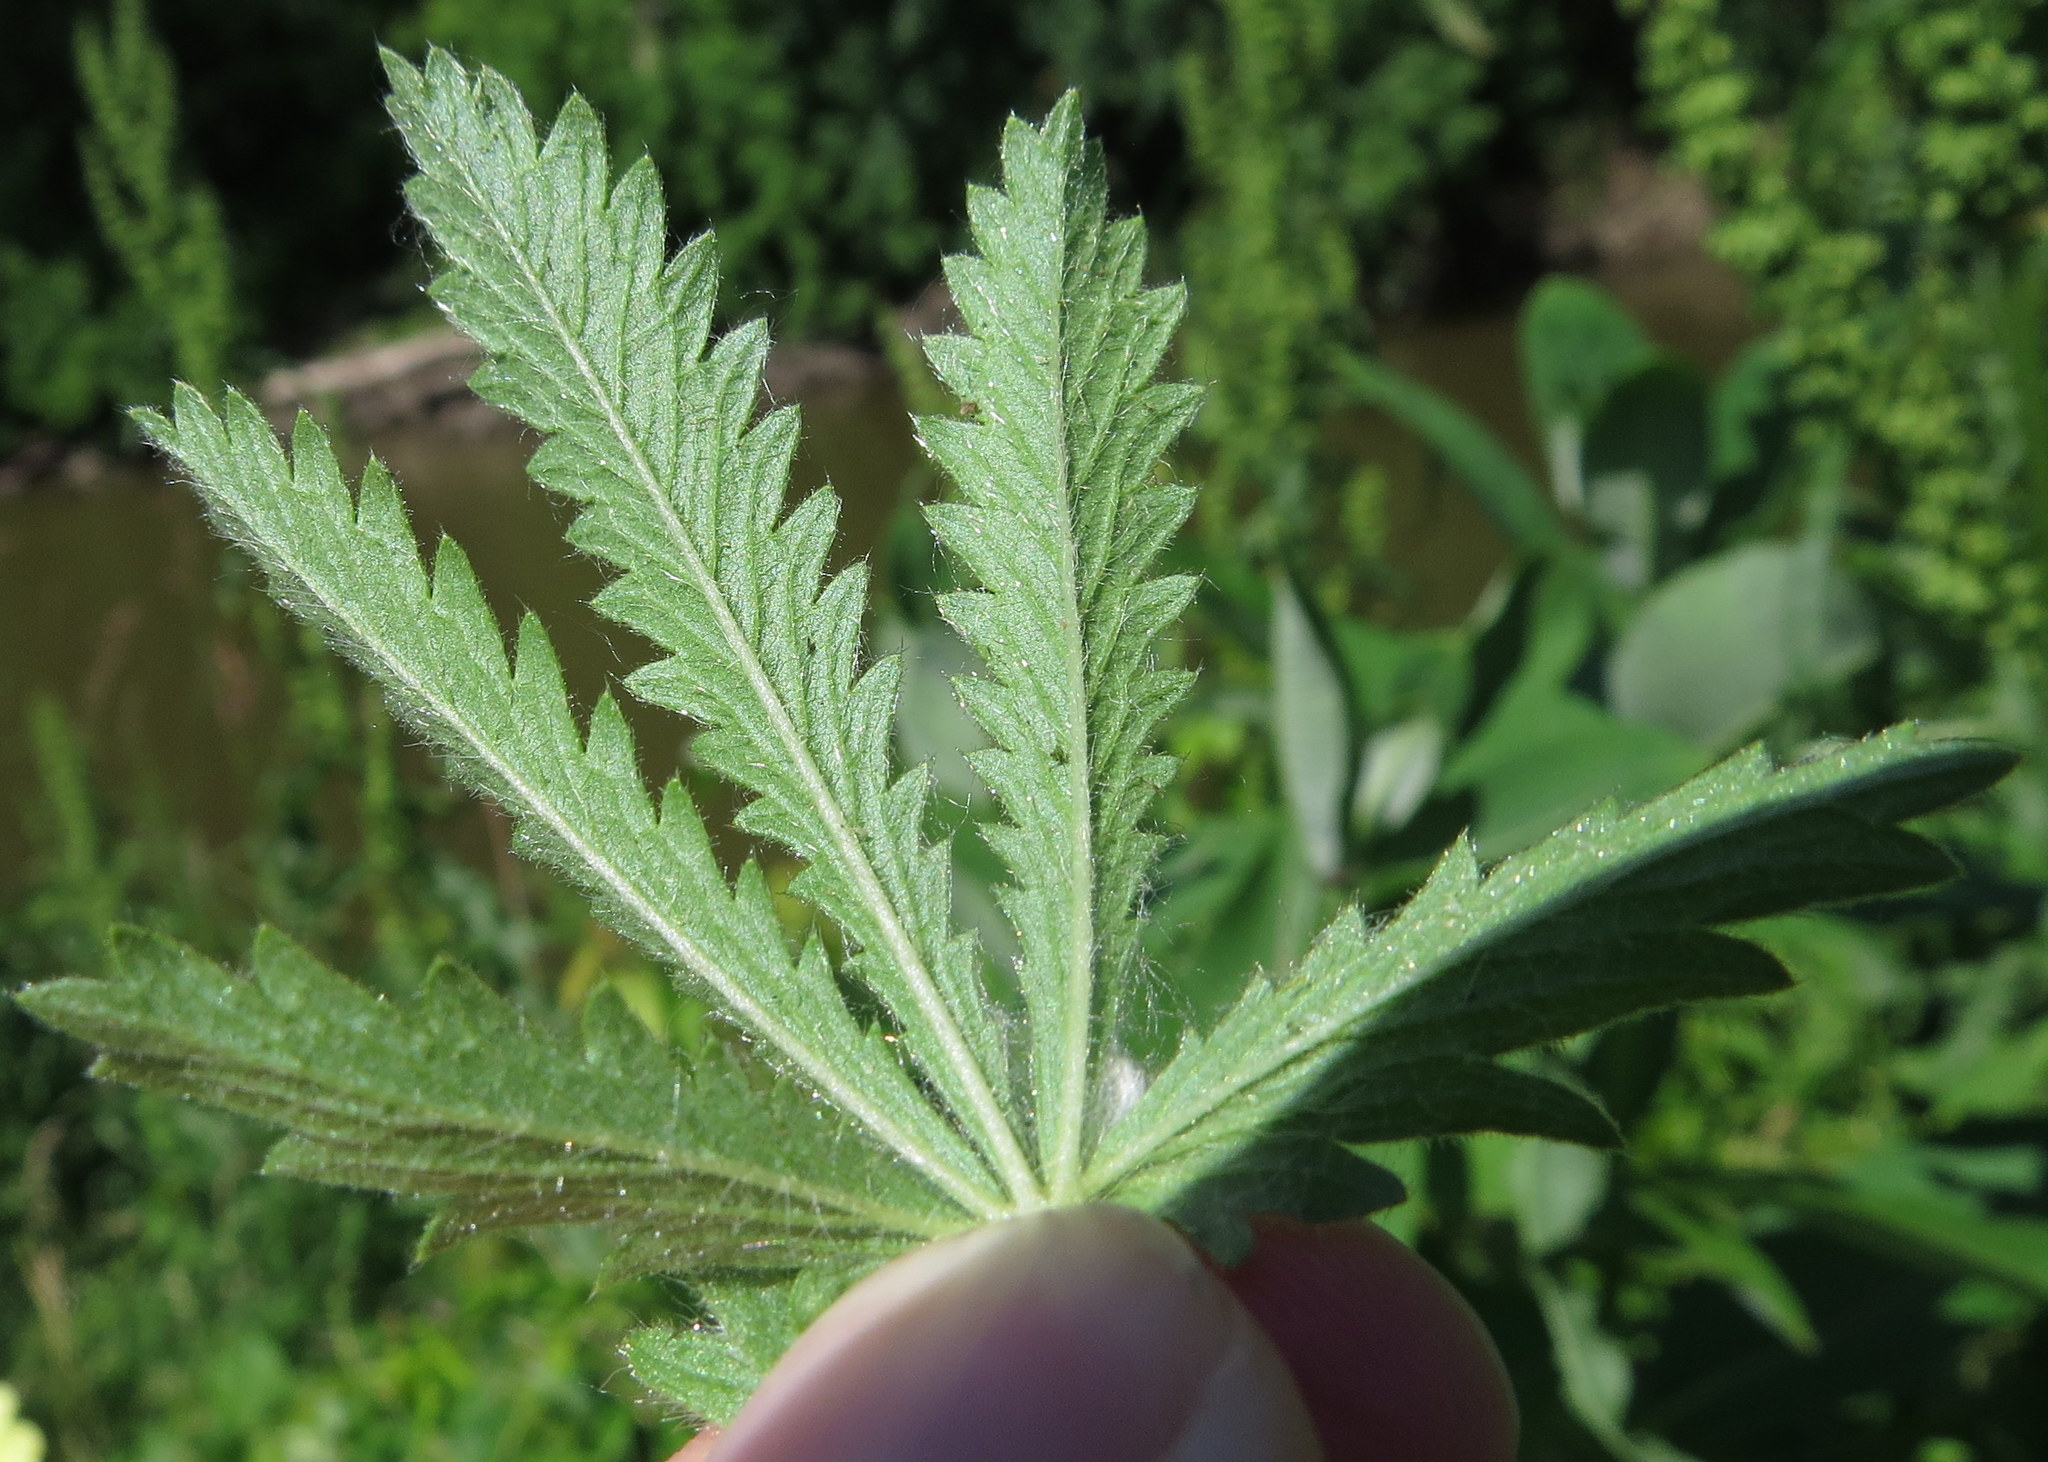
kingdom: Plantae
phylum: Tracheophyta
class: Magnoliopsida
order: Rosales
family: Rosaceae
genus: Potentilla
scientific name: Potentilla recta
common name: Sulphur cinquefoil
